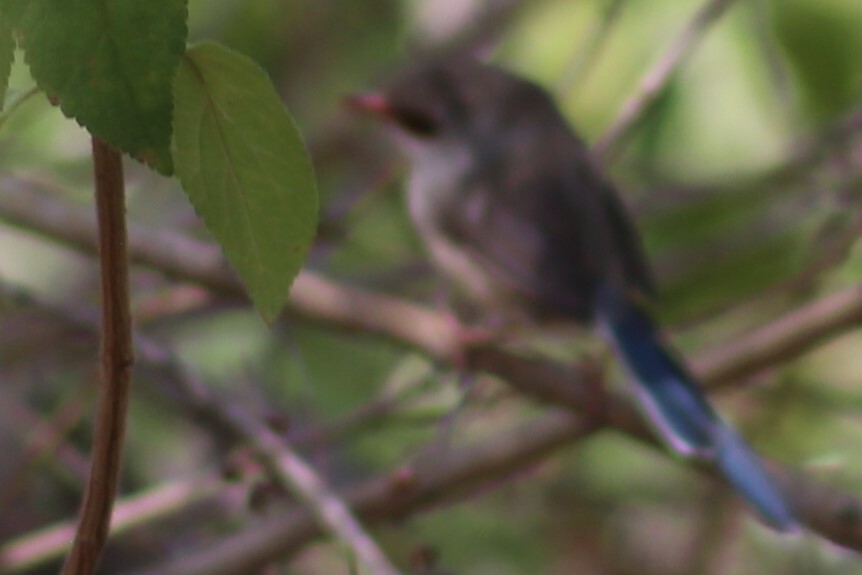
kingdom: Animalia
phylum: Chordata
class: Aves
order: Passeriformes
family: Maluridae
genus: Malurus
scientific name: Malurus lamberti
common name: Variegated fairywren
